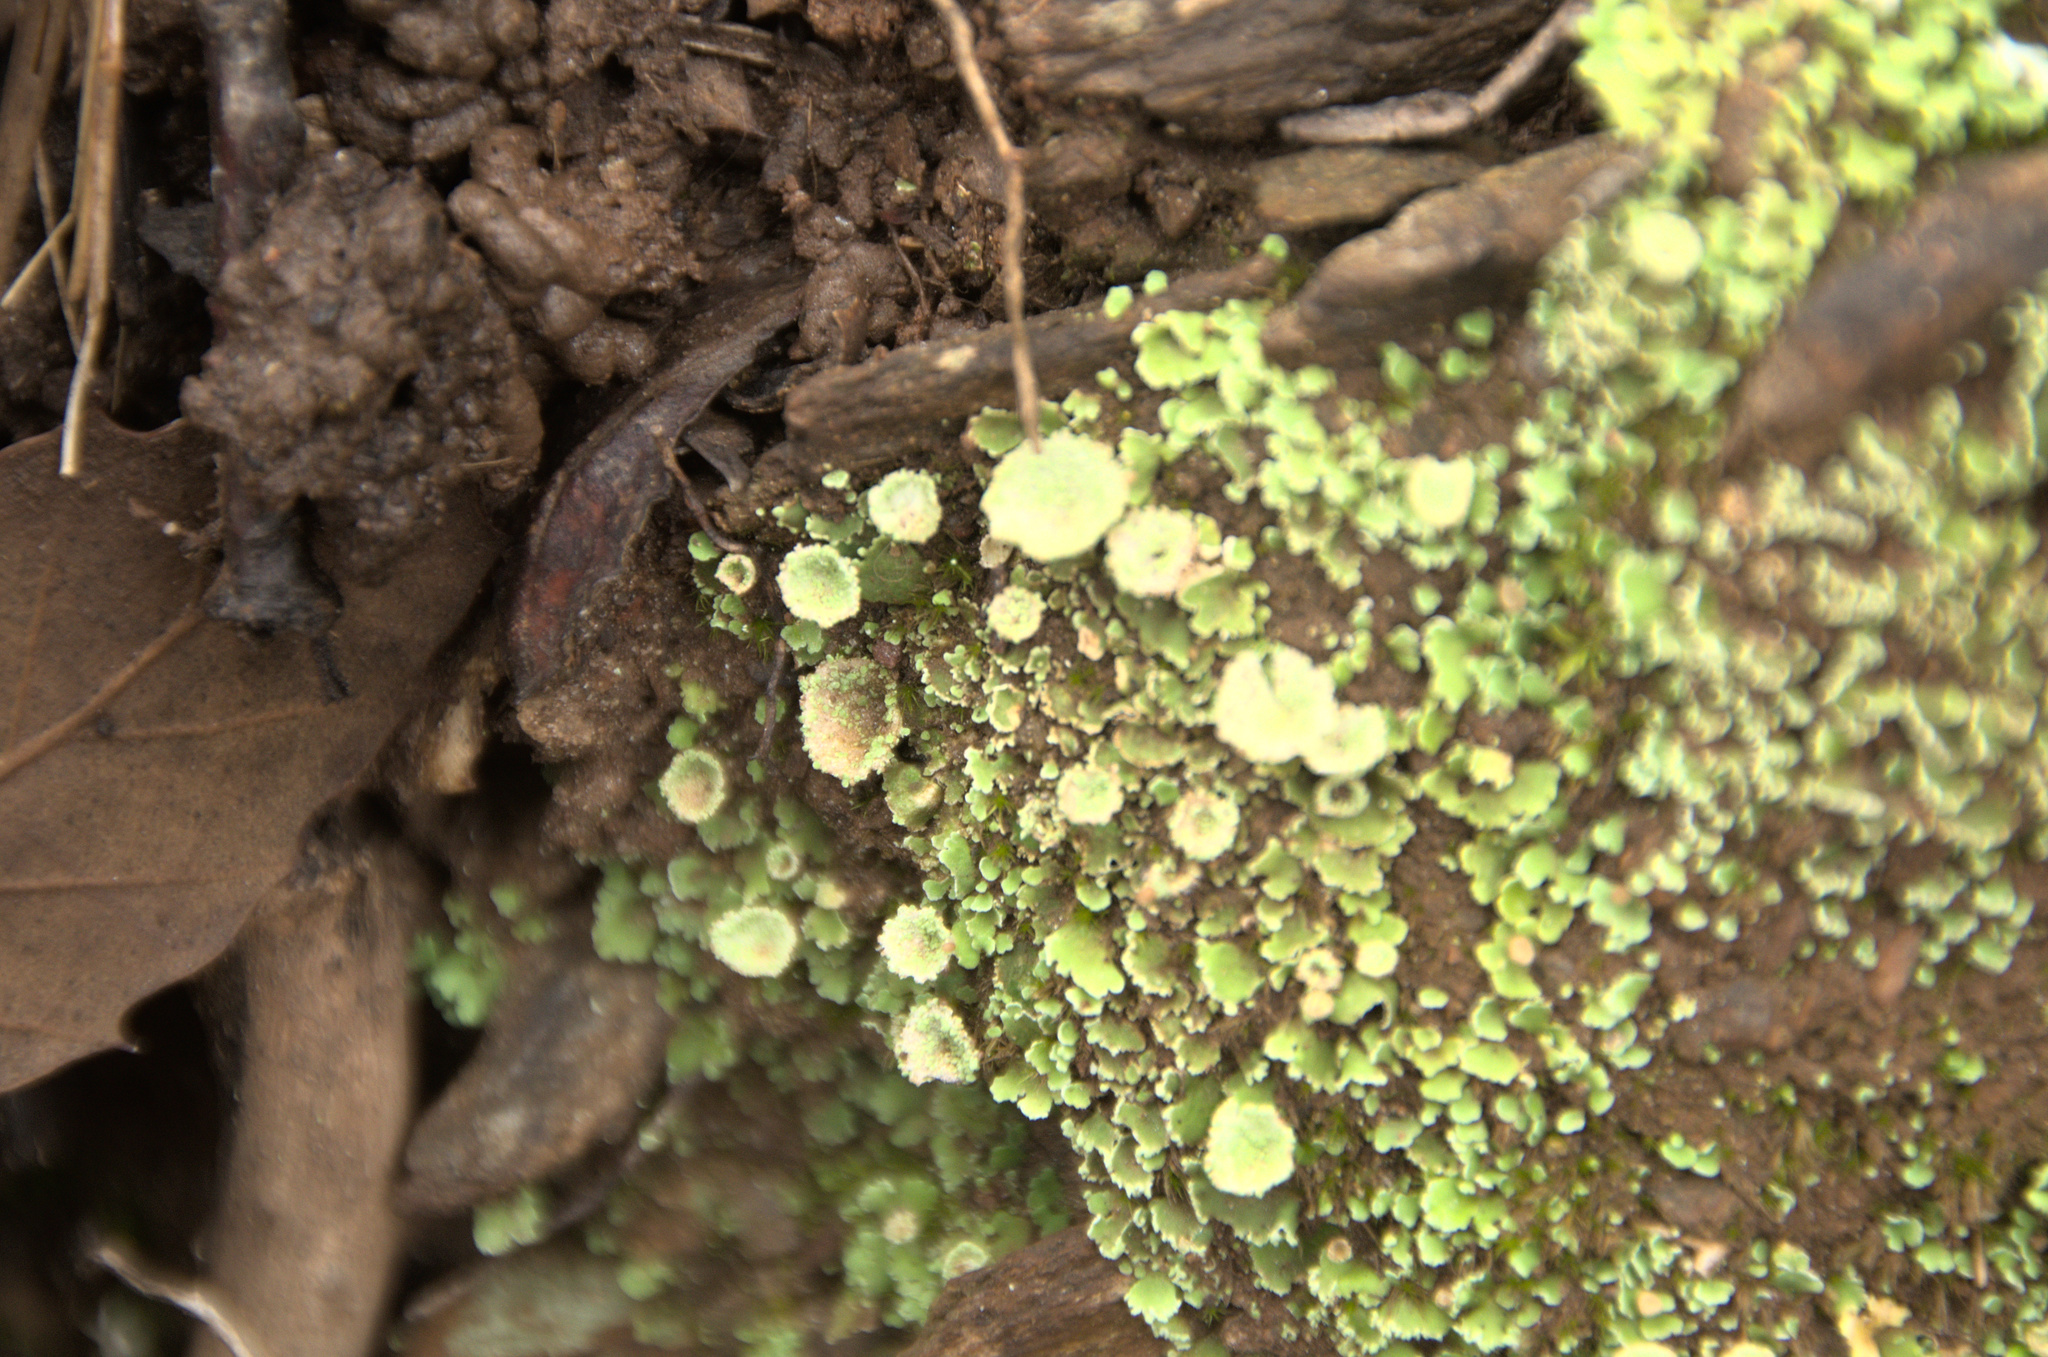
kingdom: Fungi
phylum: Ascomycota
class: Lecanoromycetes
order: Lecanorales
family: Cladoniaceae
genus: Cladonia
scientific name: Cladonia
